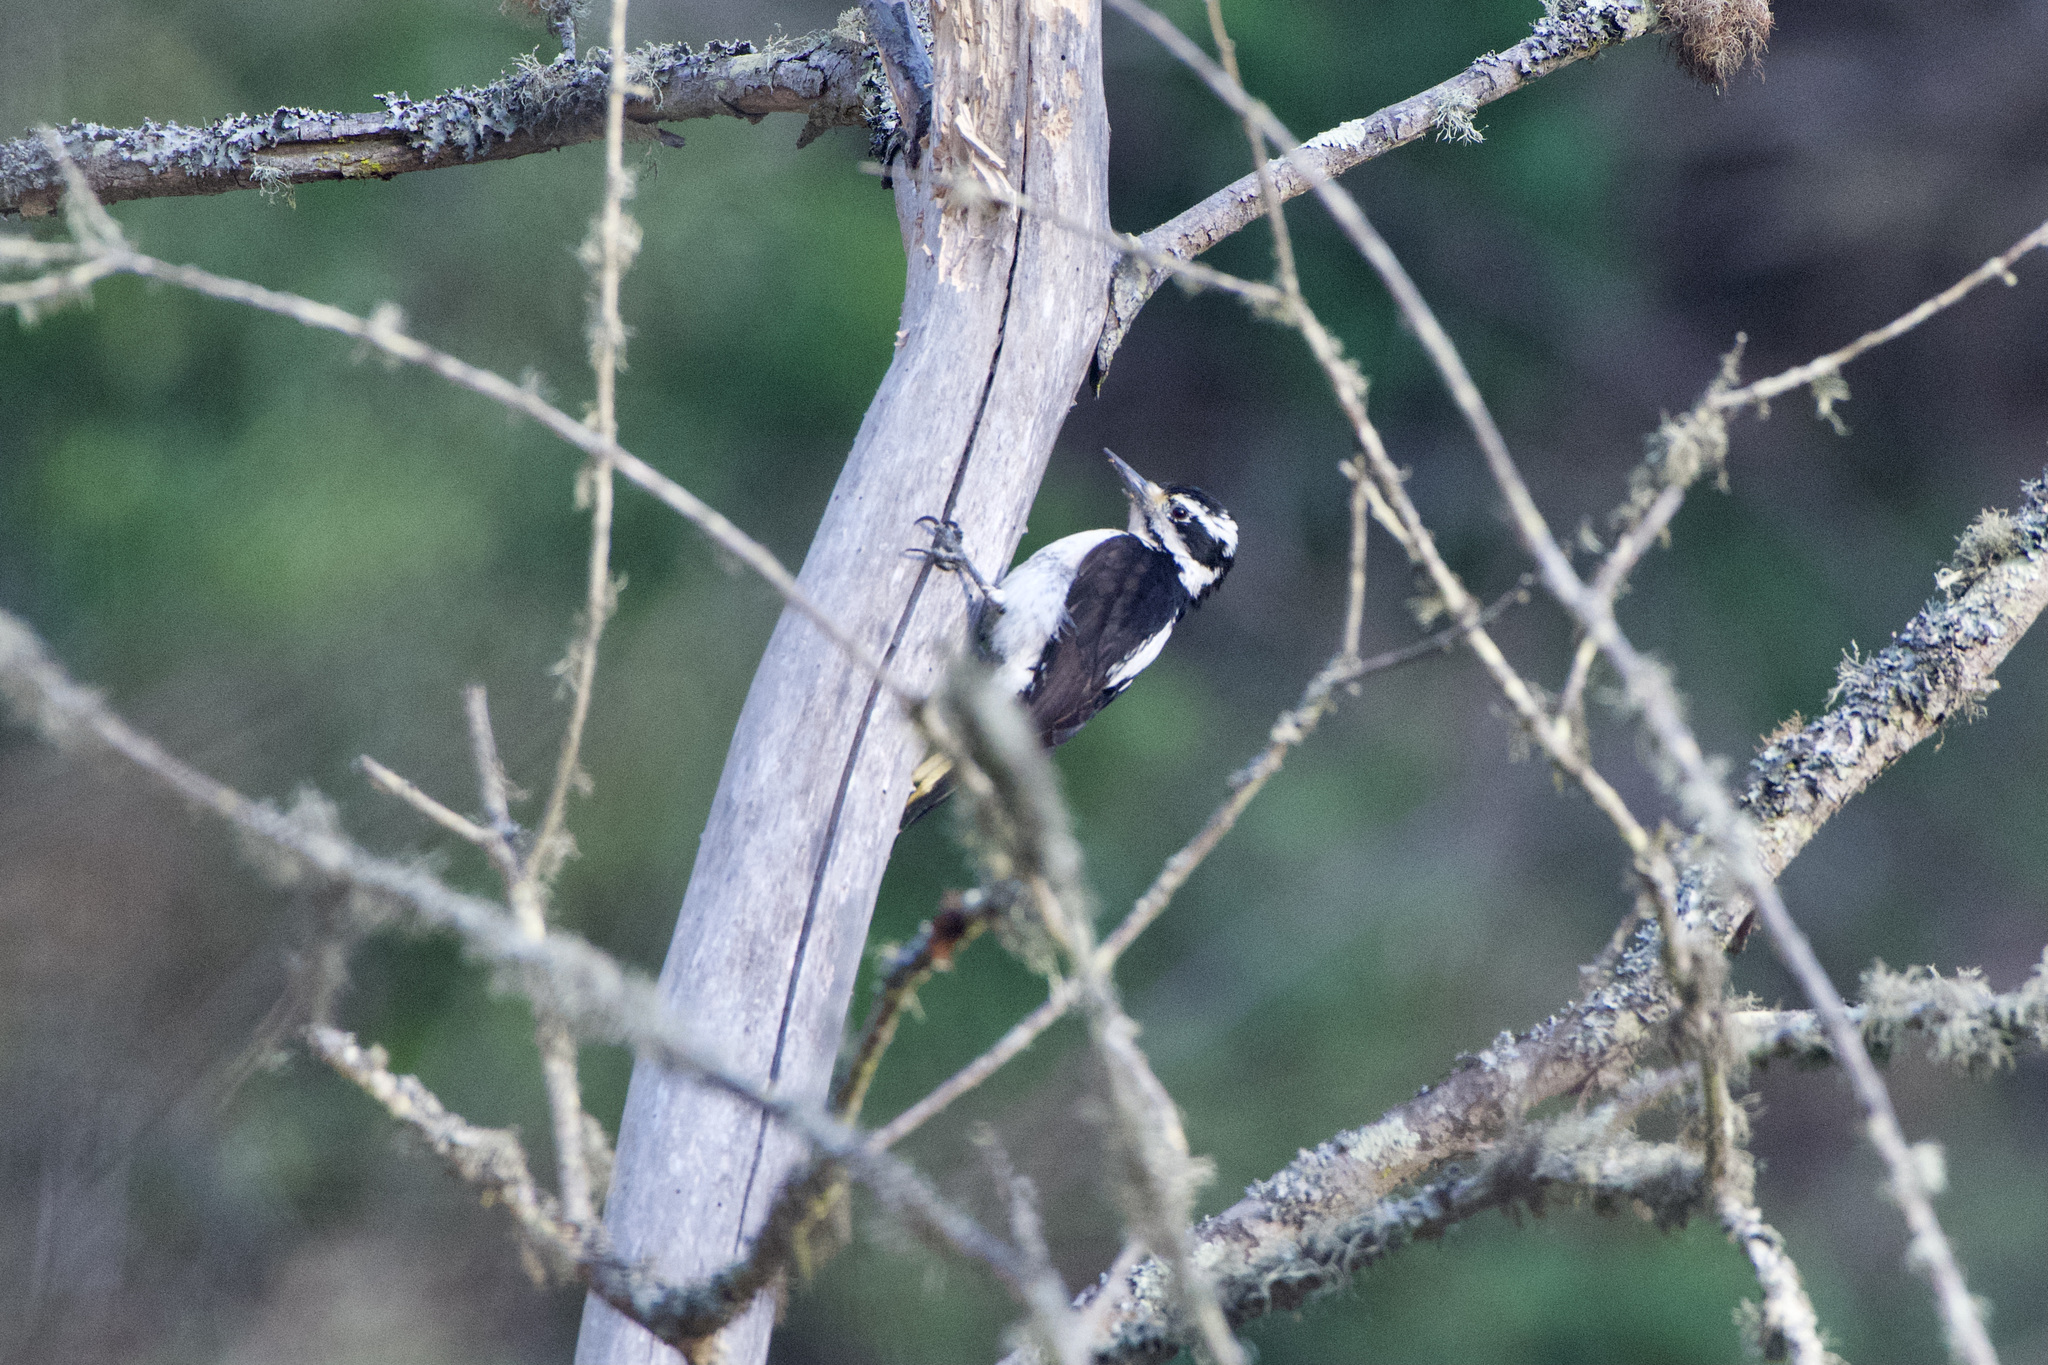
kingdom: Animalia
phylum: Chordata
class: Aves
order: Piciformes
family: Picidae
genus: Leuconotopicus
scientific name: Leuconotopicus villosus
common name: Hairy woodpecker
